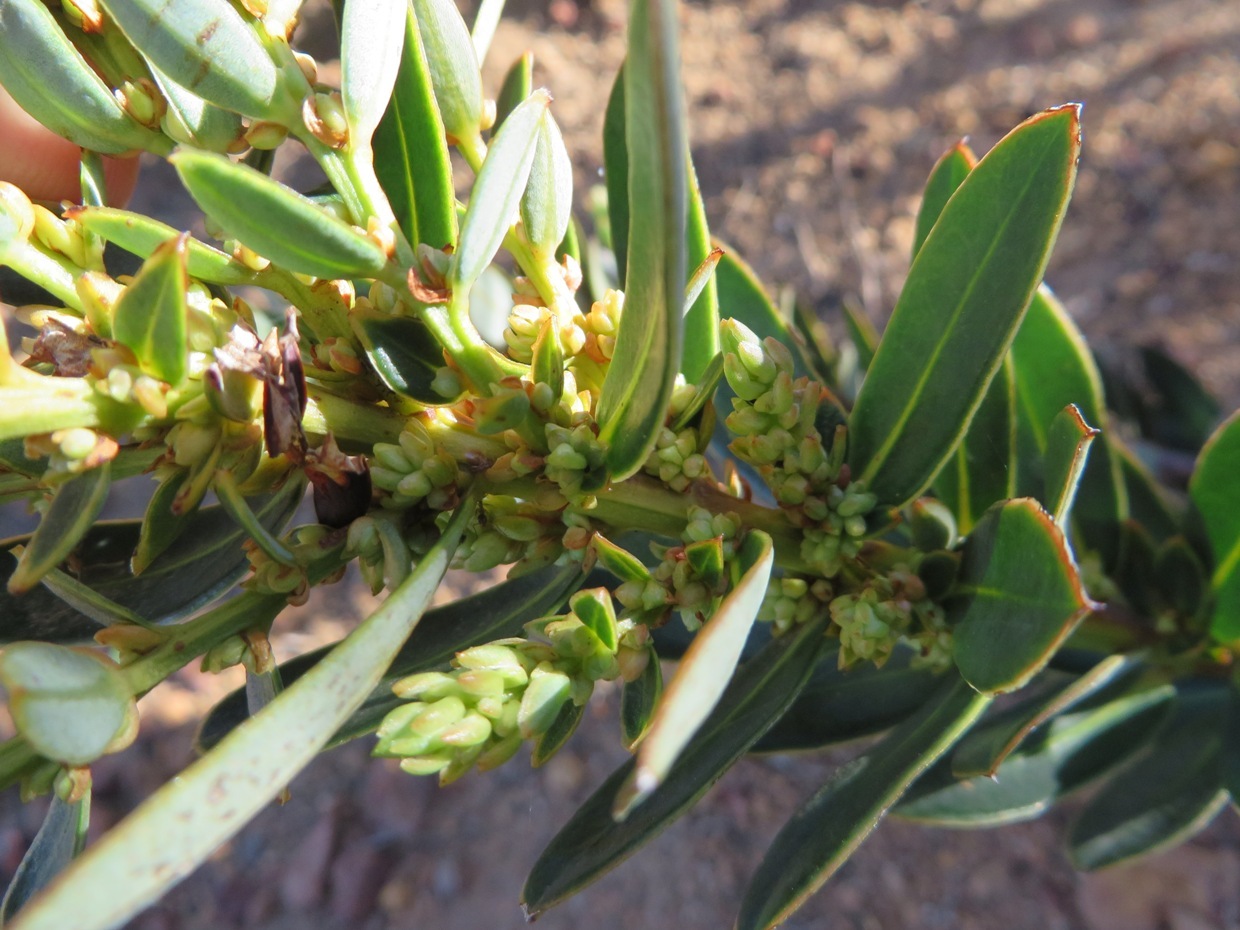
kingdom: Plantae
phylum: Tracheophyta
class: Magnoliopsida
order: Malpighiales
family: Peraceae
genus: Clutia
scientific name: Clutia polygonoides
